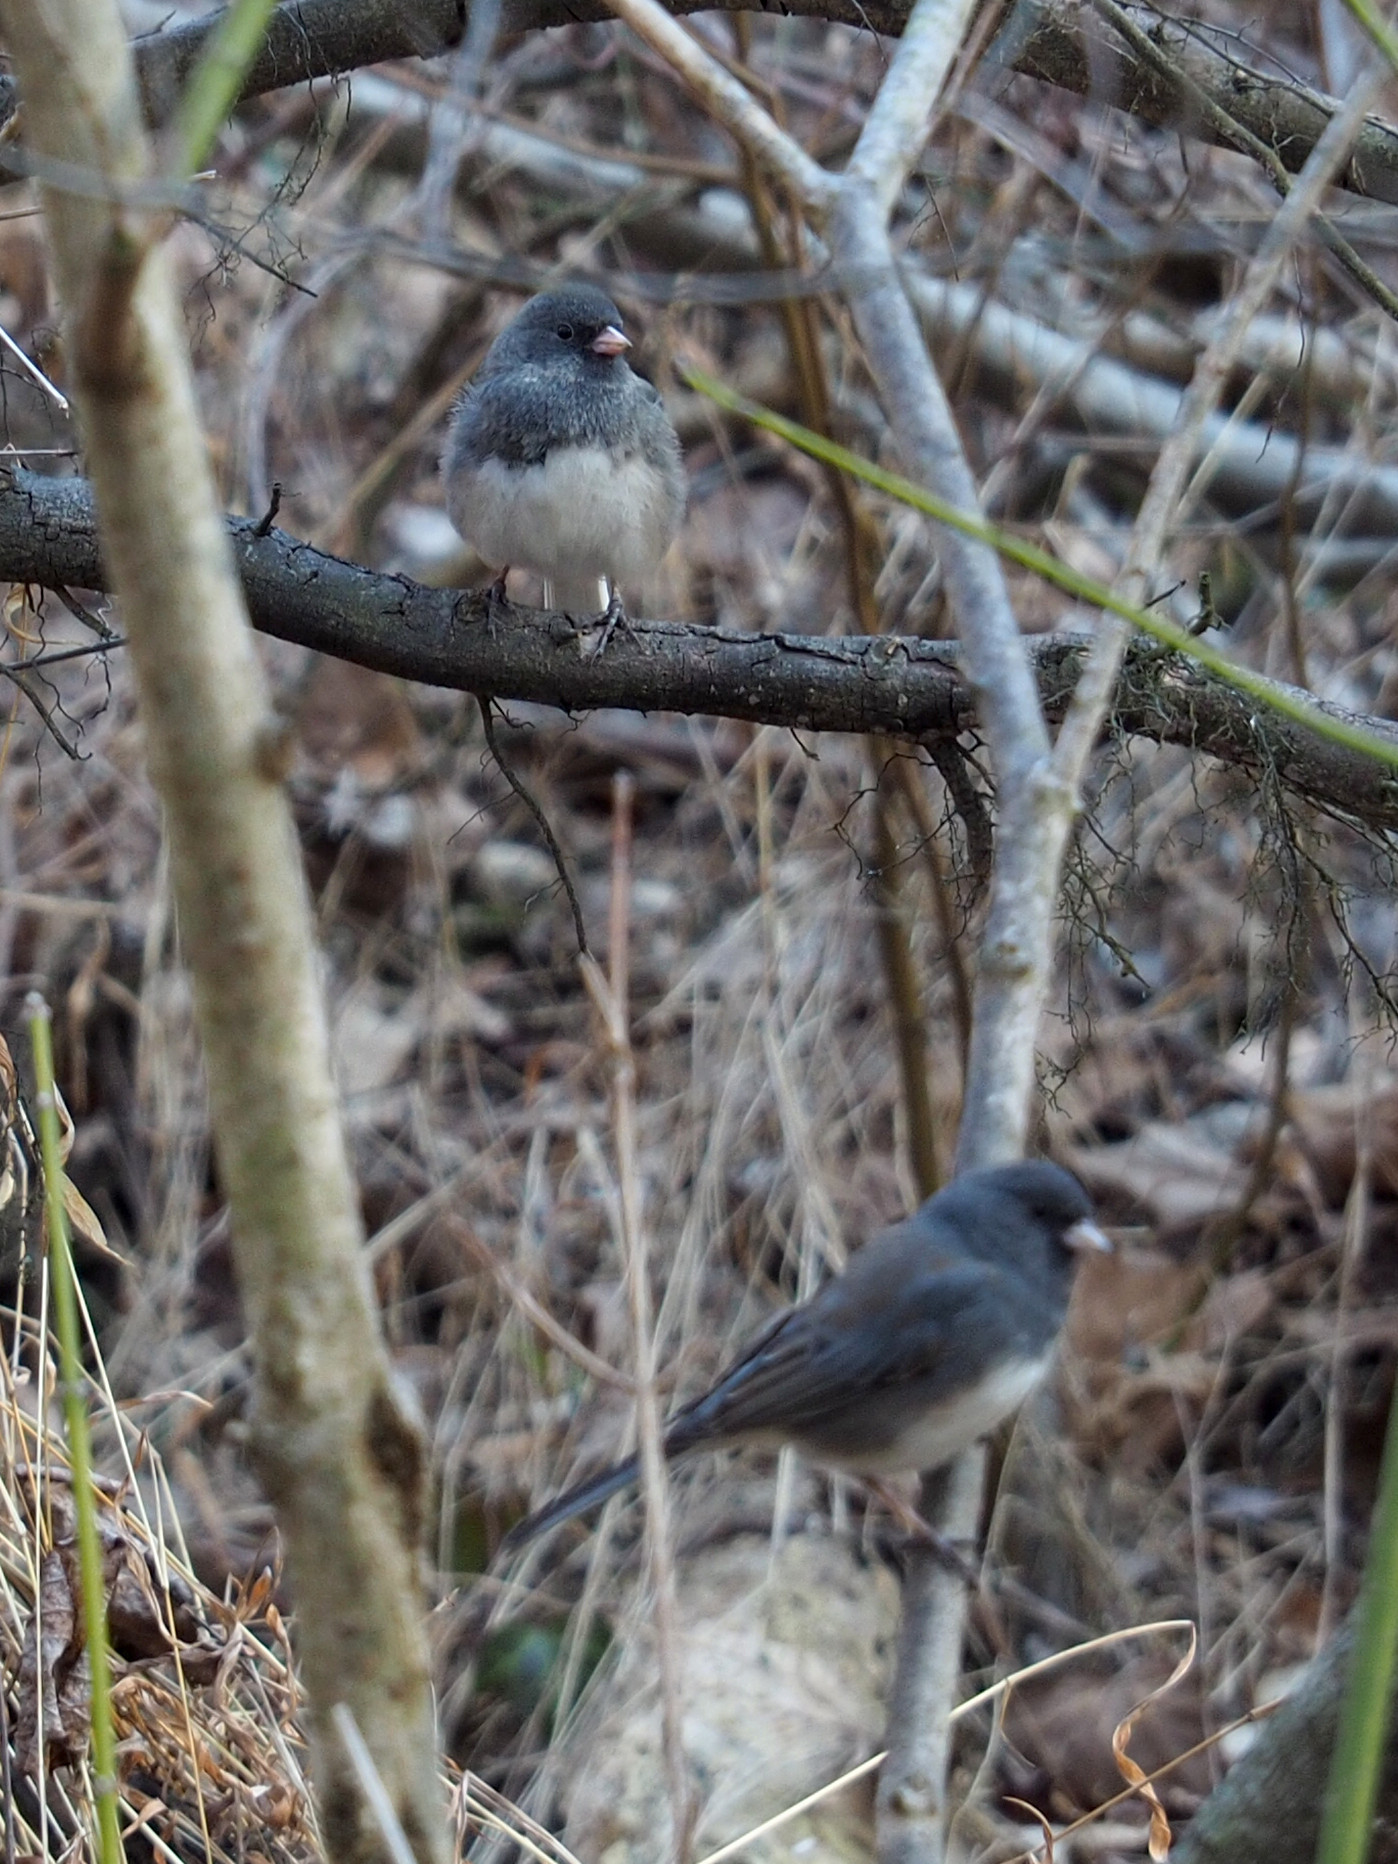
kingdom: Animalia
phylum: Chordata
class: Aves
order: Passeriformes
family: Passerellidae
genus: Junco
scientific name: Junco hyemalis
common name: Dark-eyed junco
